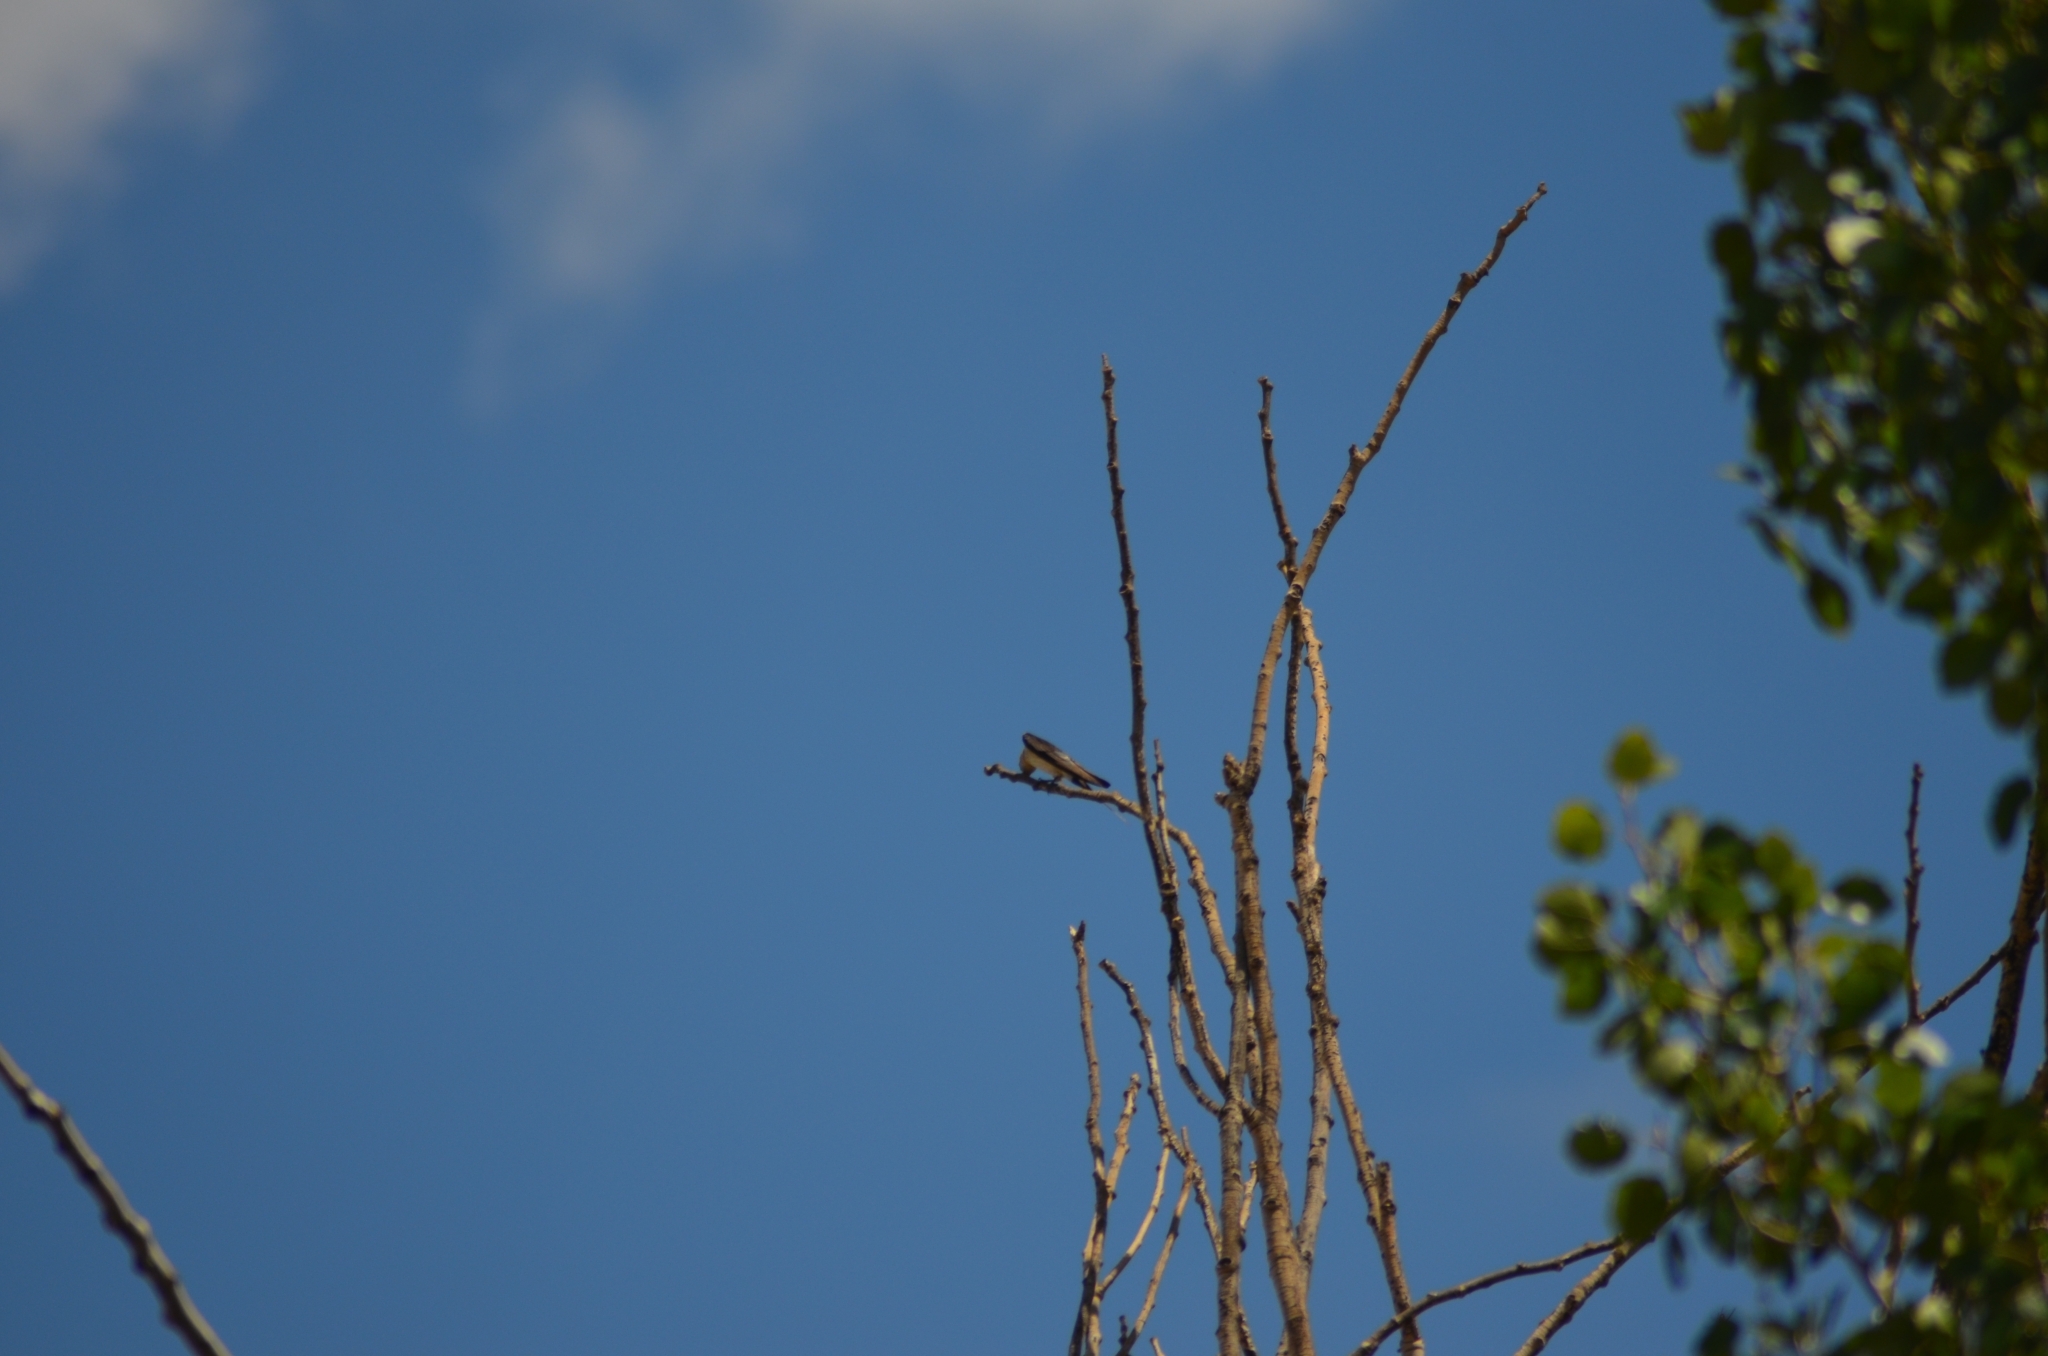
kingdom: Animalia
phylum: Chordata
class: Aves
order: Passeriformes
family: Hirundinidae
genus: Cecropis
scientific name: Cecropis daurica
